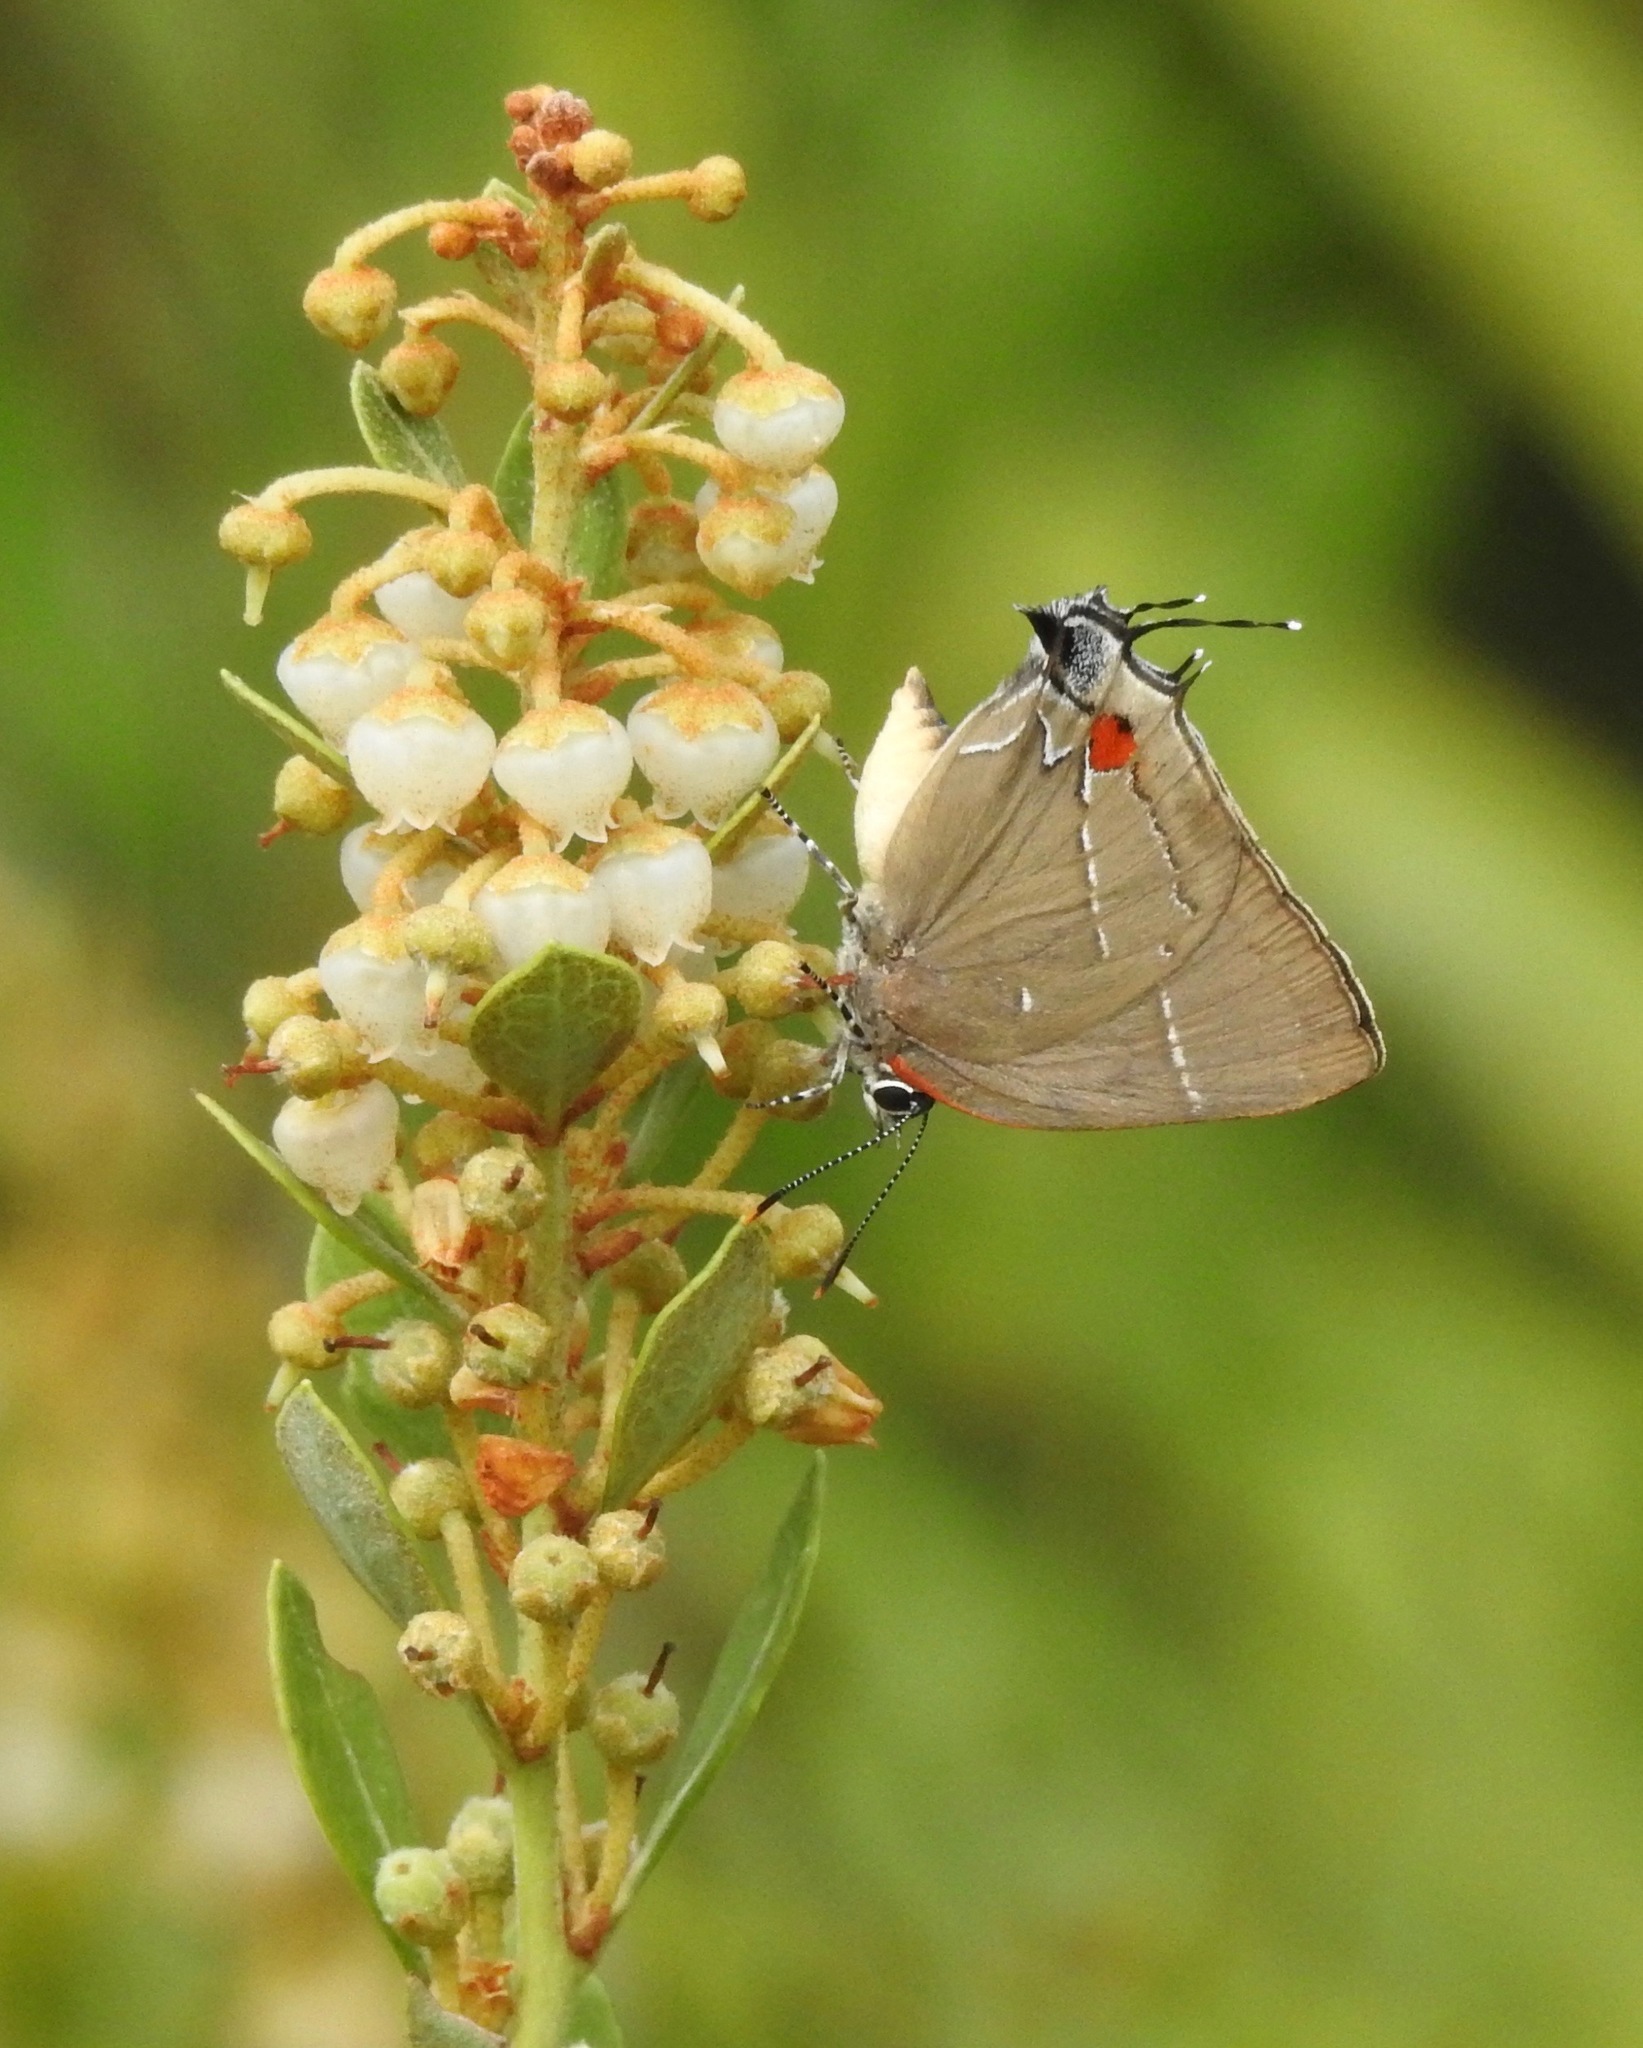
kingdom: Animalia
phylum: Arthropoda
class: Insecta
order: Lepidoptera
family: Lycaenidae
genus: Parrhasius
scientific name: Parrhasius m-album
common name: White m hairstreak
